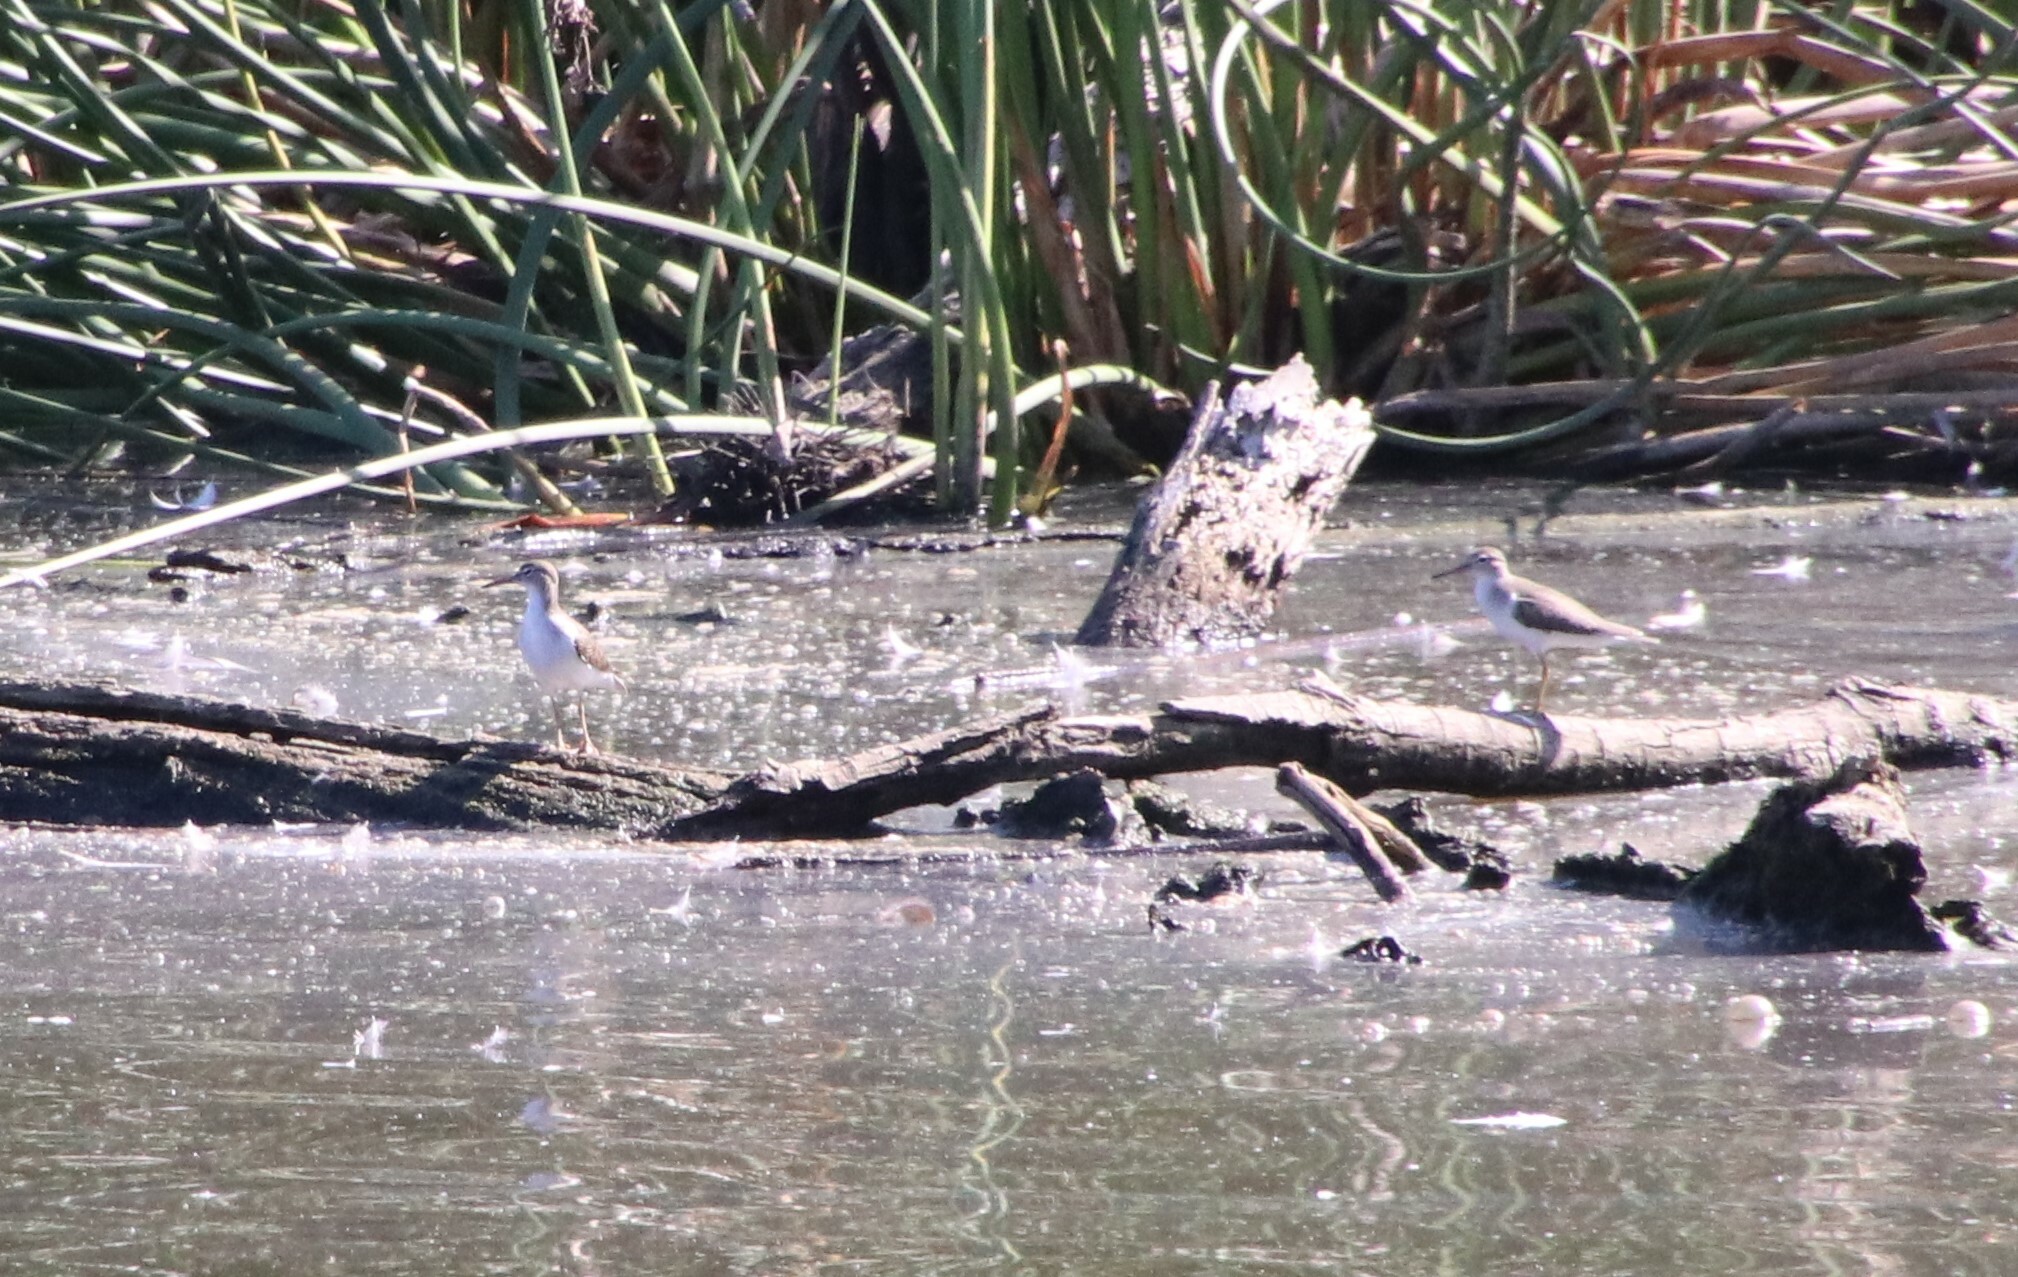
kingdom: Animalia
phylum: Chordata
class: Aves
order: Charadriiformes
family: Scolopacidae
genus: Actitis
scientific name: Actitis macularius
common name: Spotted sandpiper
